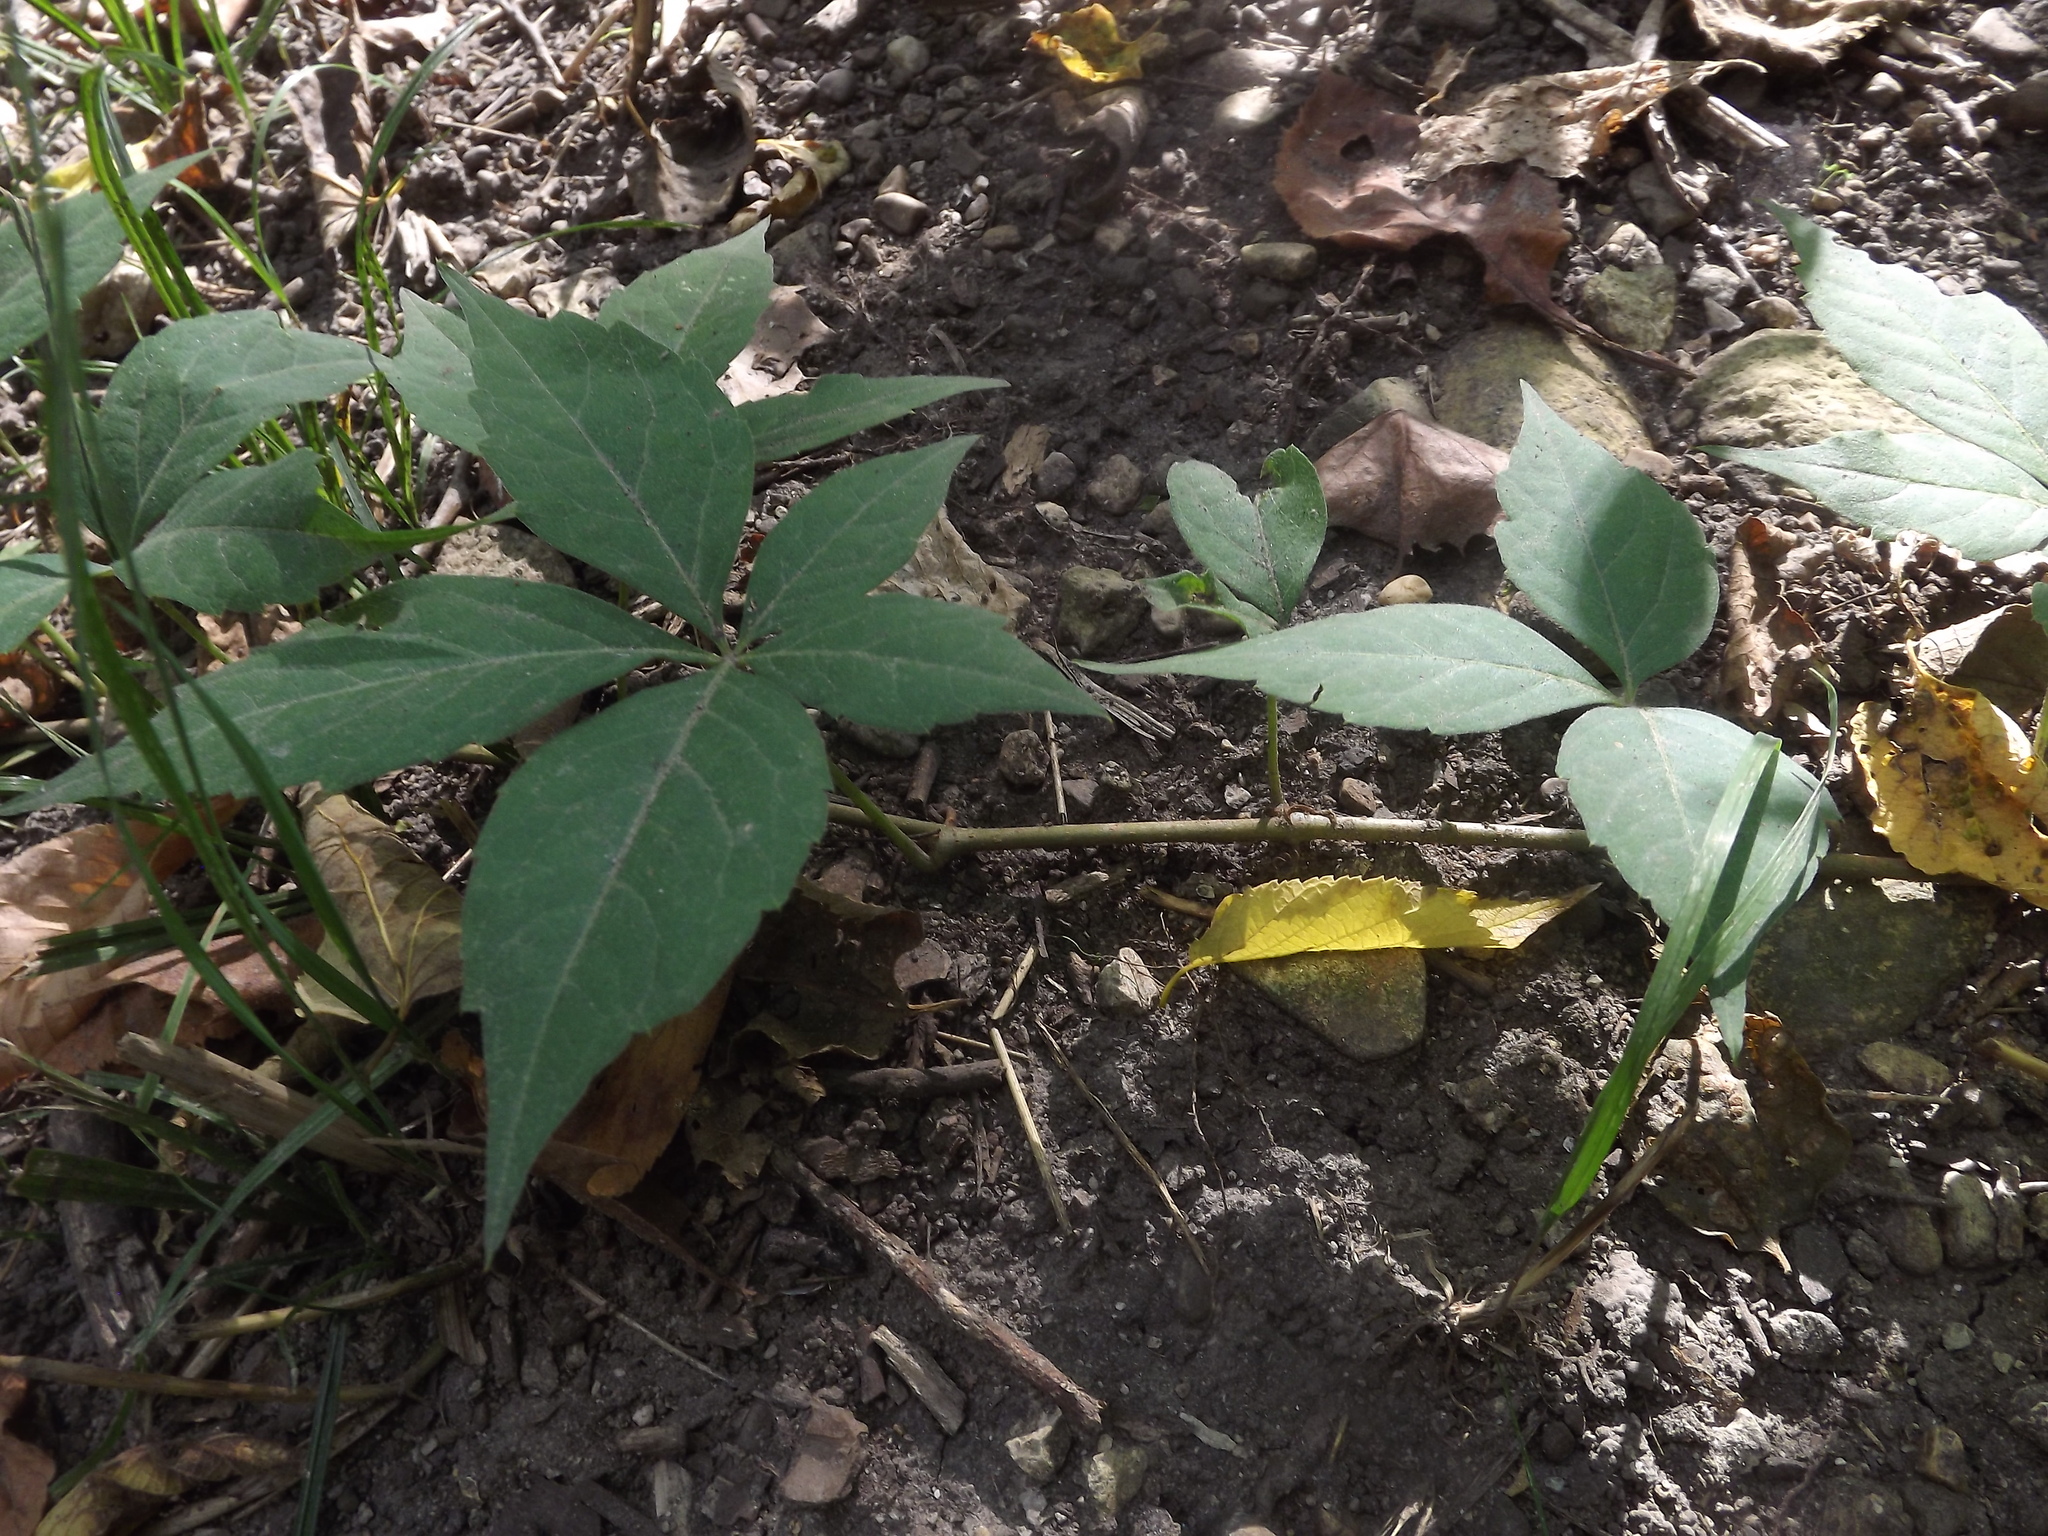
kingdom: Plantae
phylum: Tracheophyta
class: Magnoliopsida
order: Vitales
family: Vitaceae
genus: Parthenocissus
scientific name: Parthenocissus quinquefolia
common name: Virginia-creeper
